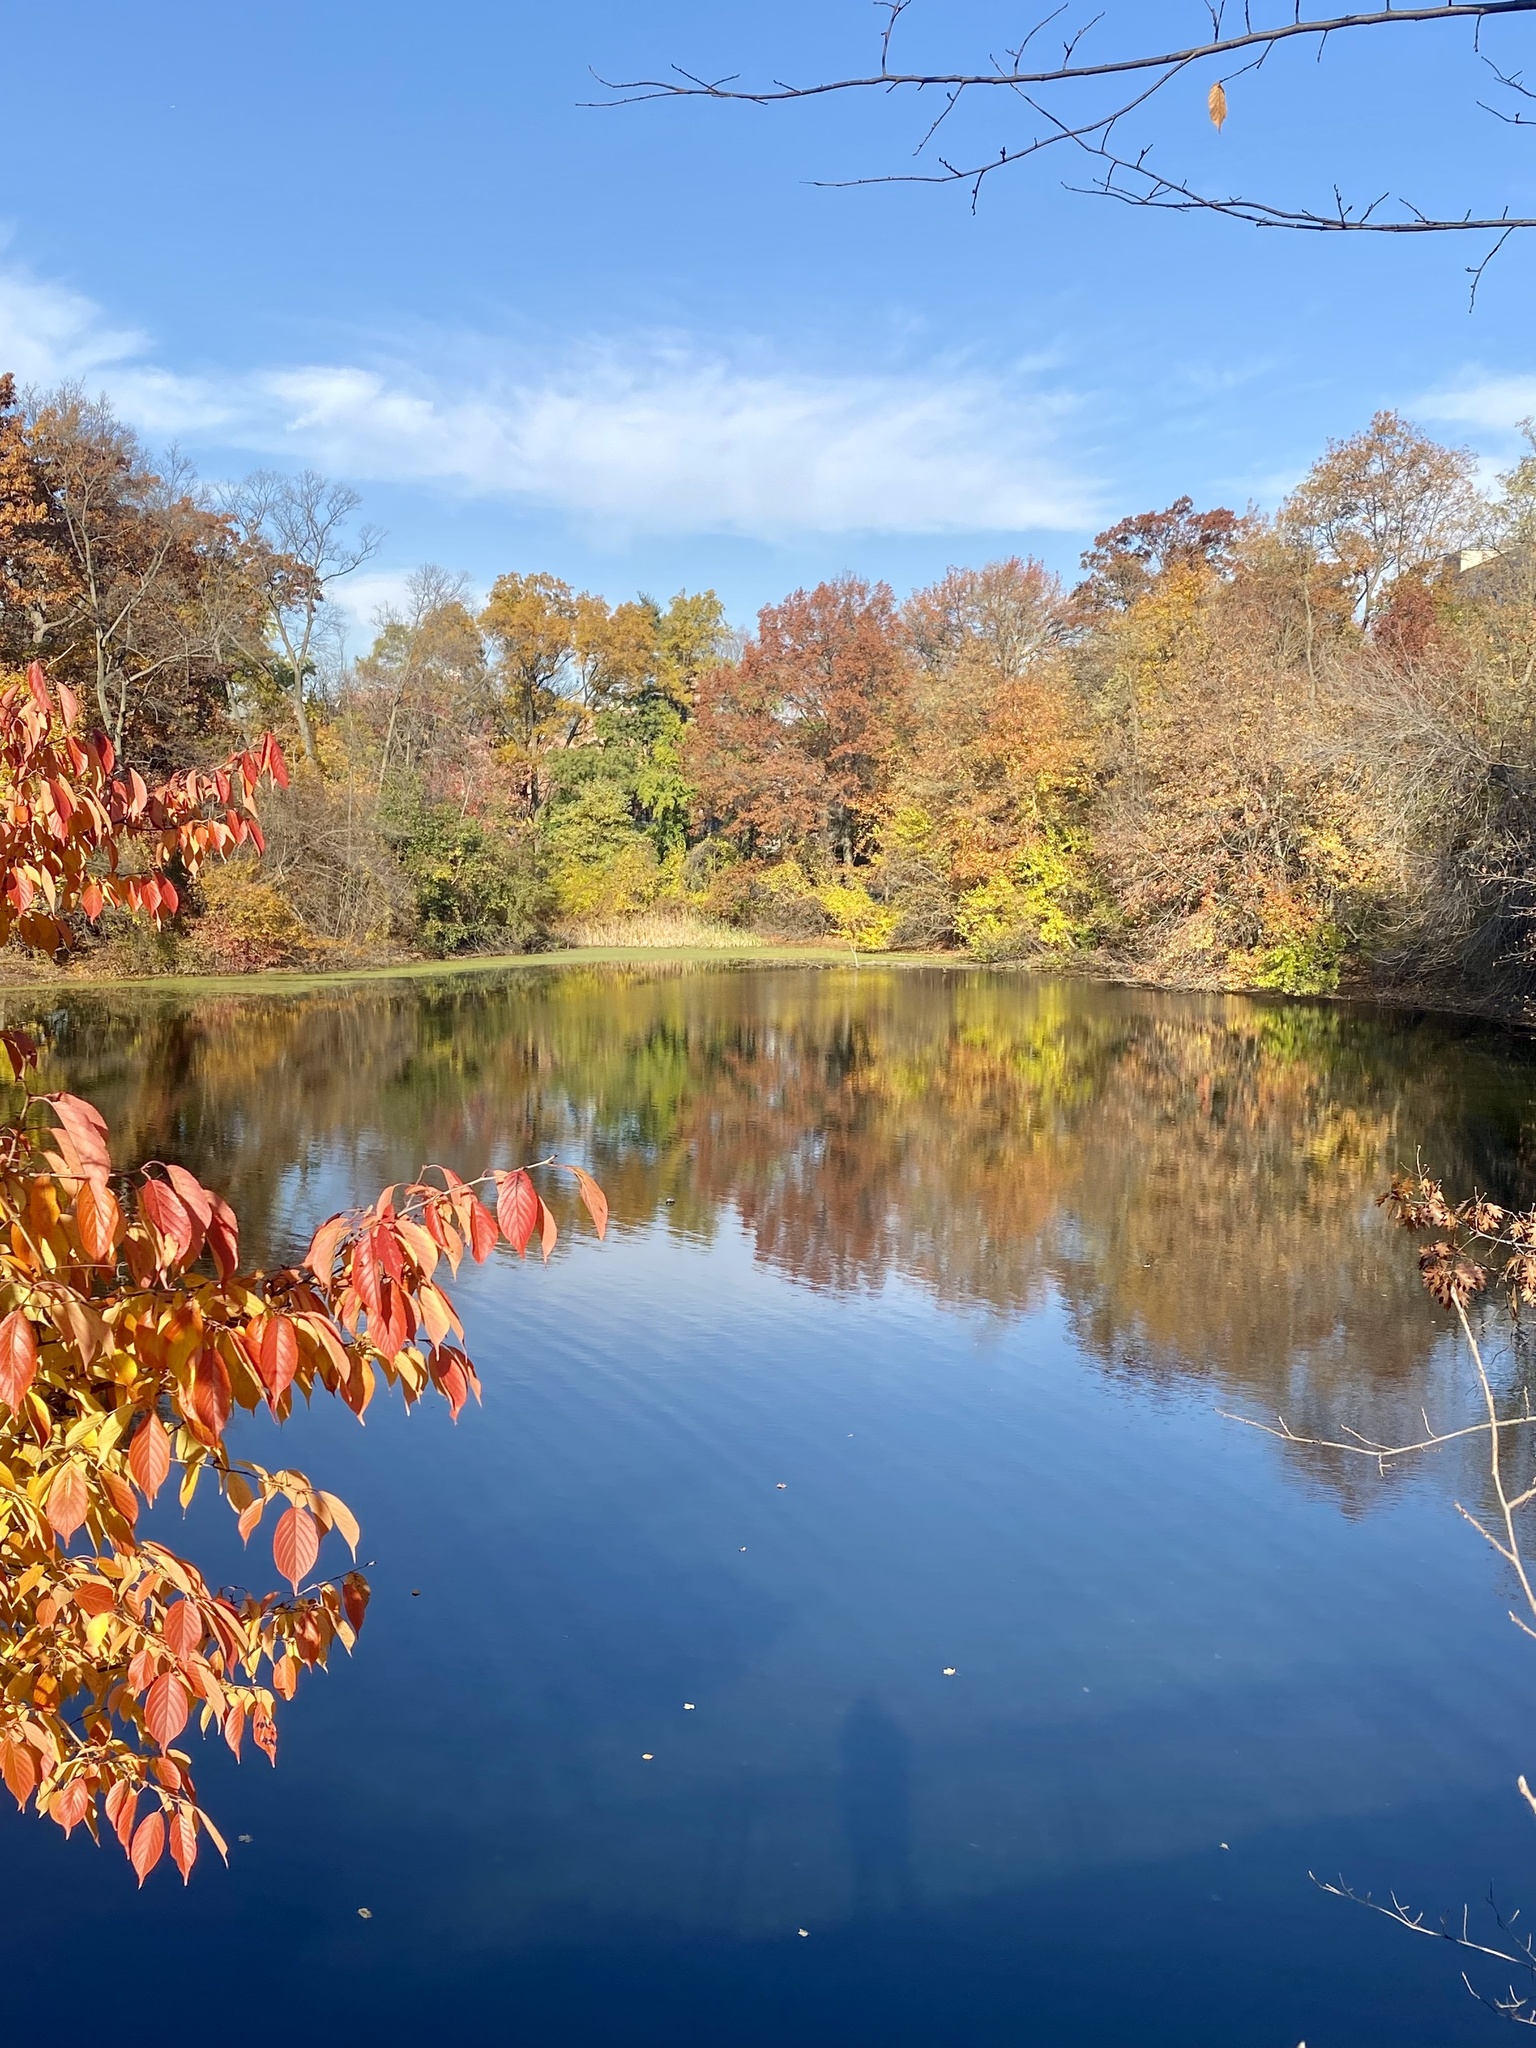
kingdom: Plantae
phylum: Tracheophyta
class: Magnoliopsida
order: Celastrales
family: Celastraceae
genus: Celastrus
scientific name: Celastrus orbiculatus
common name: Oriental bittersweet
